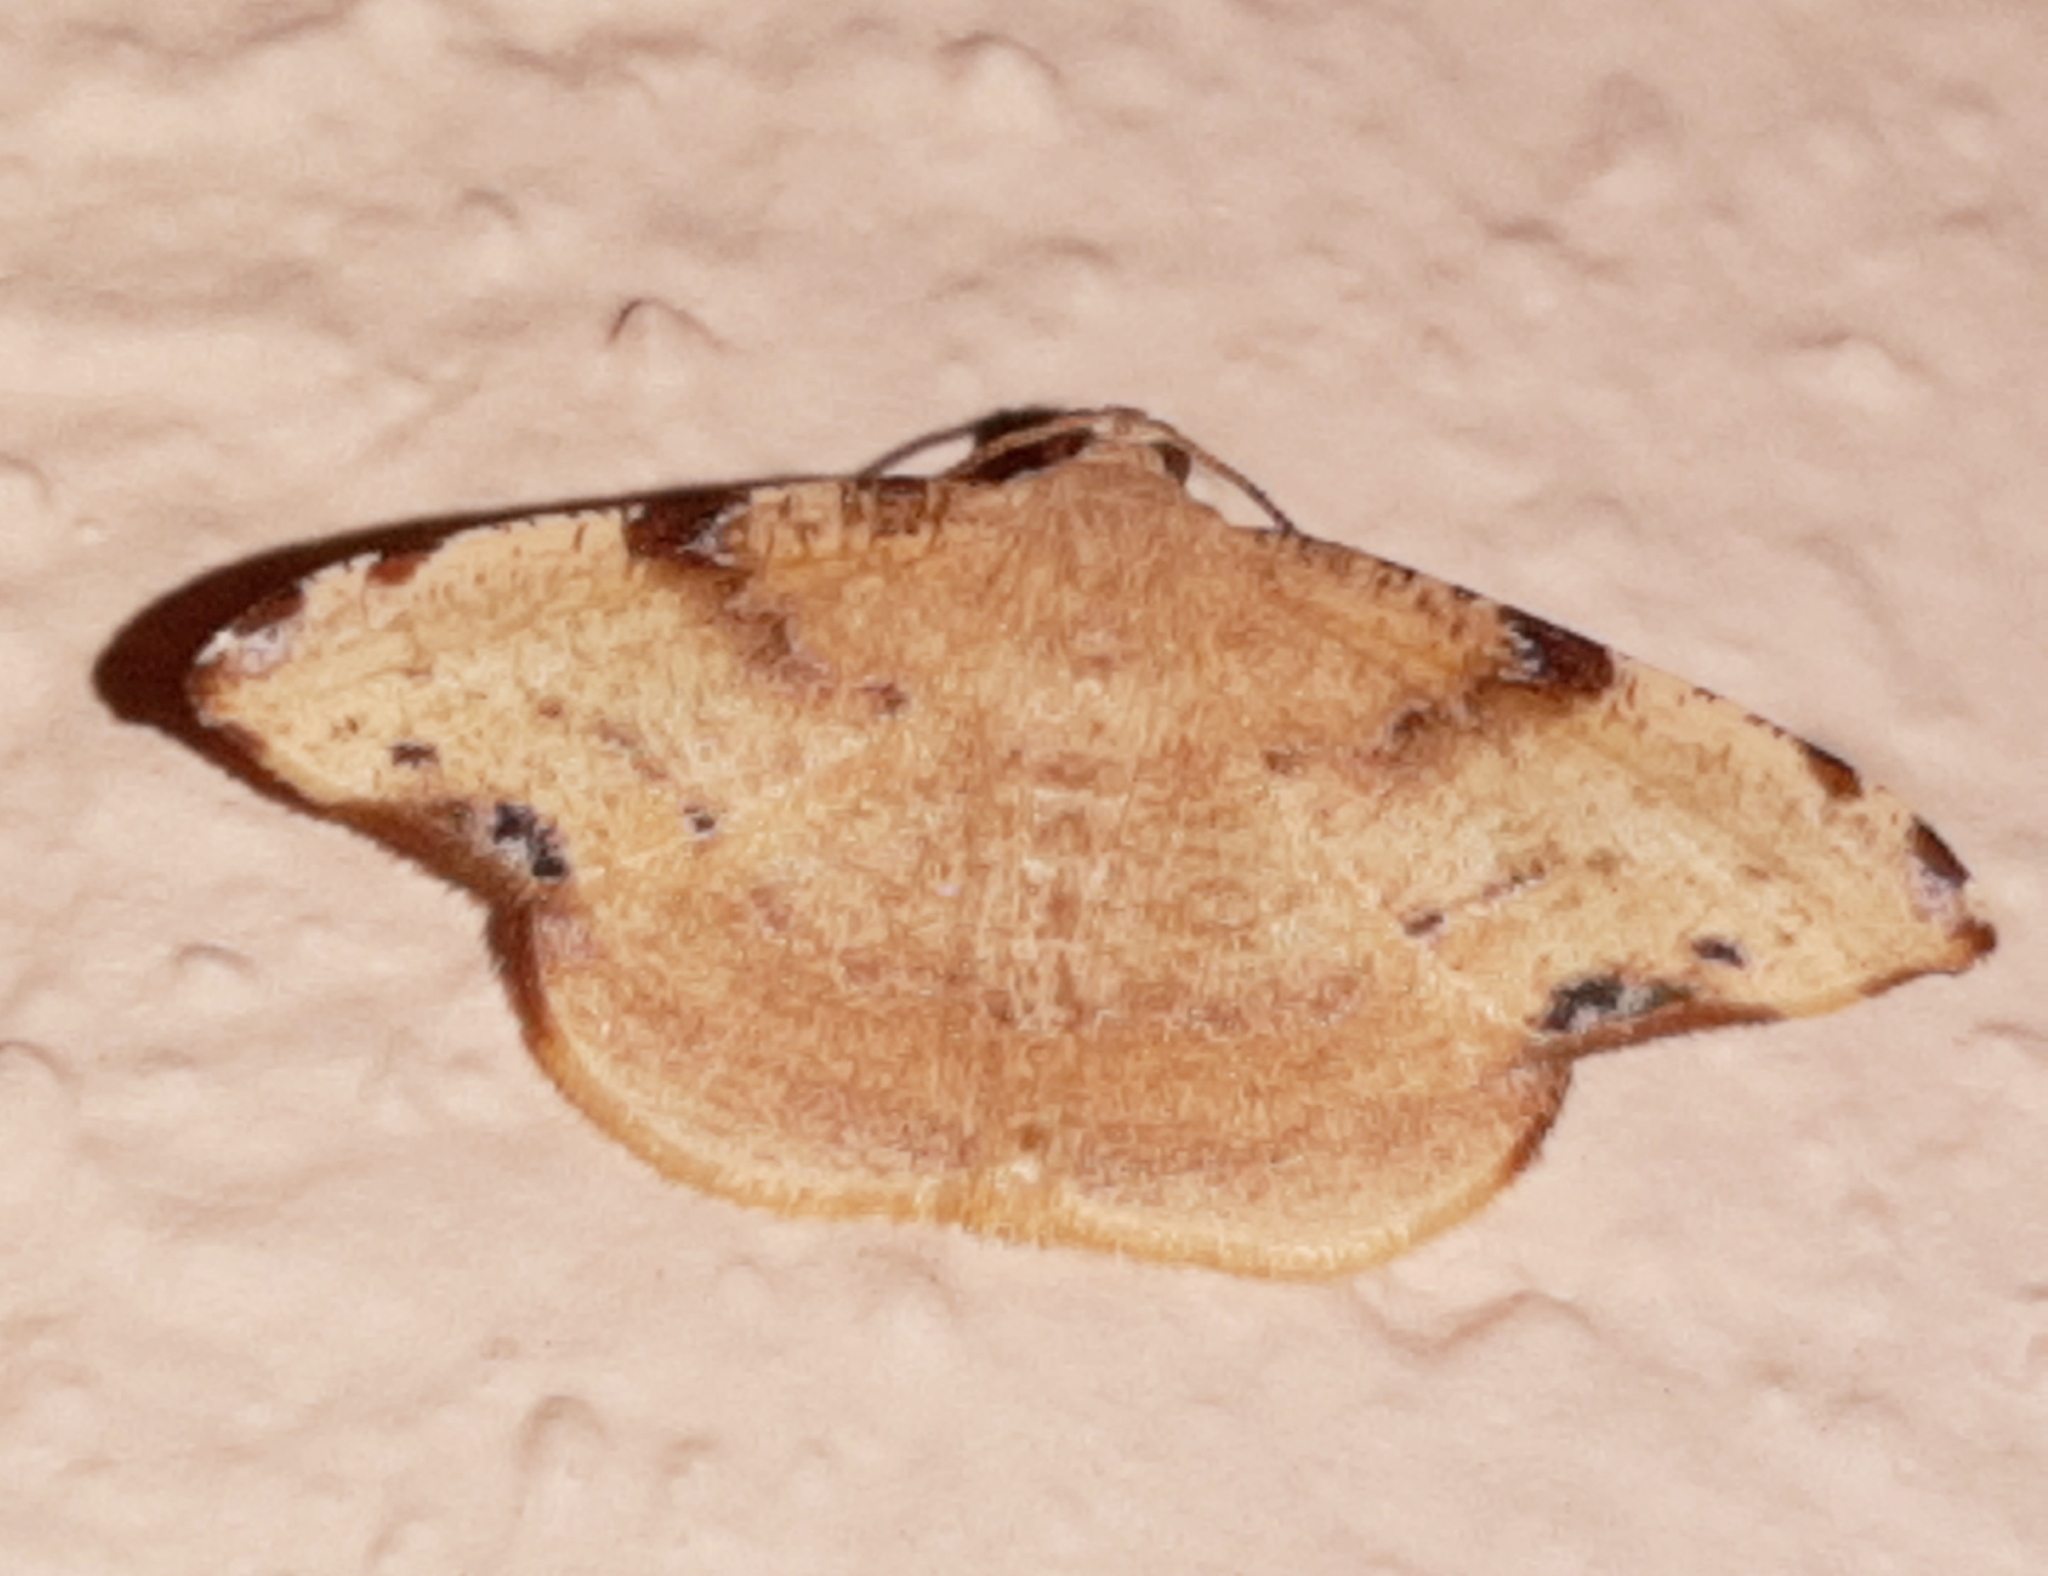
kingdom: Animalia
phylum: Arthropoda
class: Insecta
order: Lepidoptera
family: Geometridae
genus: Pyrinia
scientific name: Pyrinia selecta
